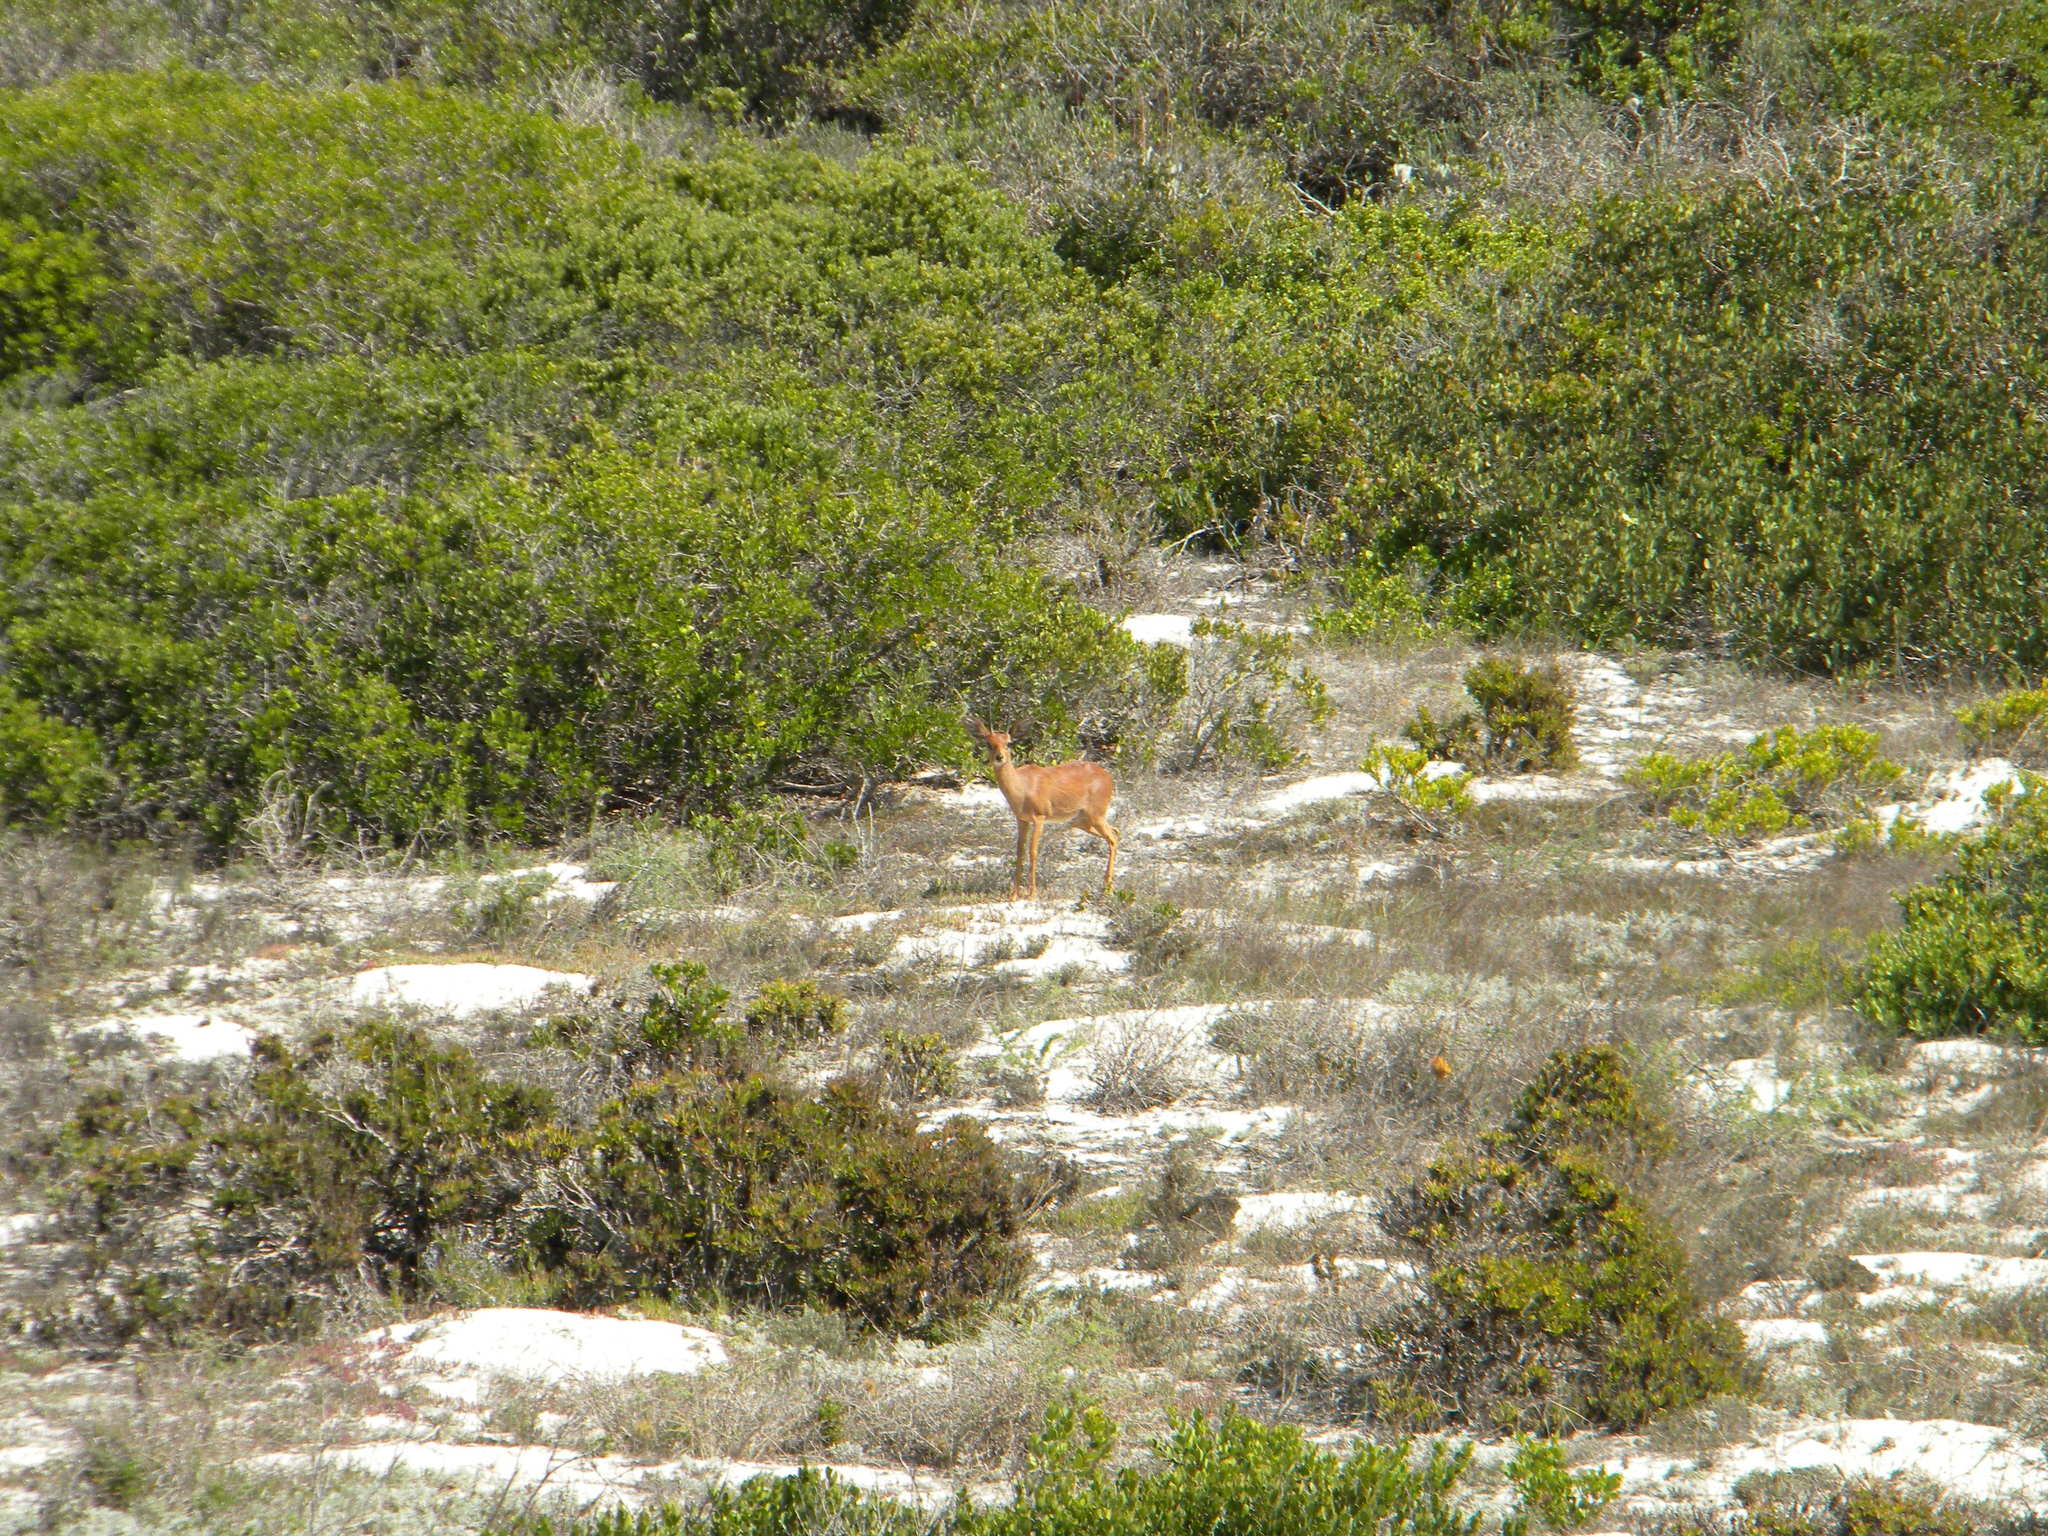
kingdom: Animalia
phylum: Chordata
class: Mammalia
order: Artiodactyla
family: Bovidae
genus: Raphicerus
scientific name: Raphicerus campestris
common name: Steenbok
